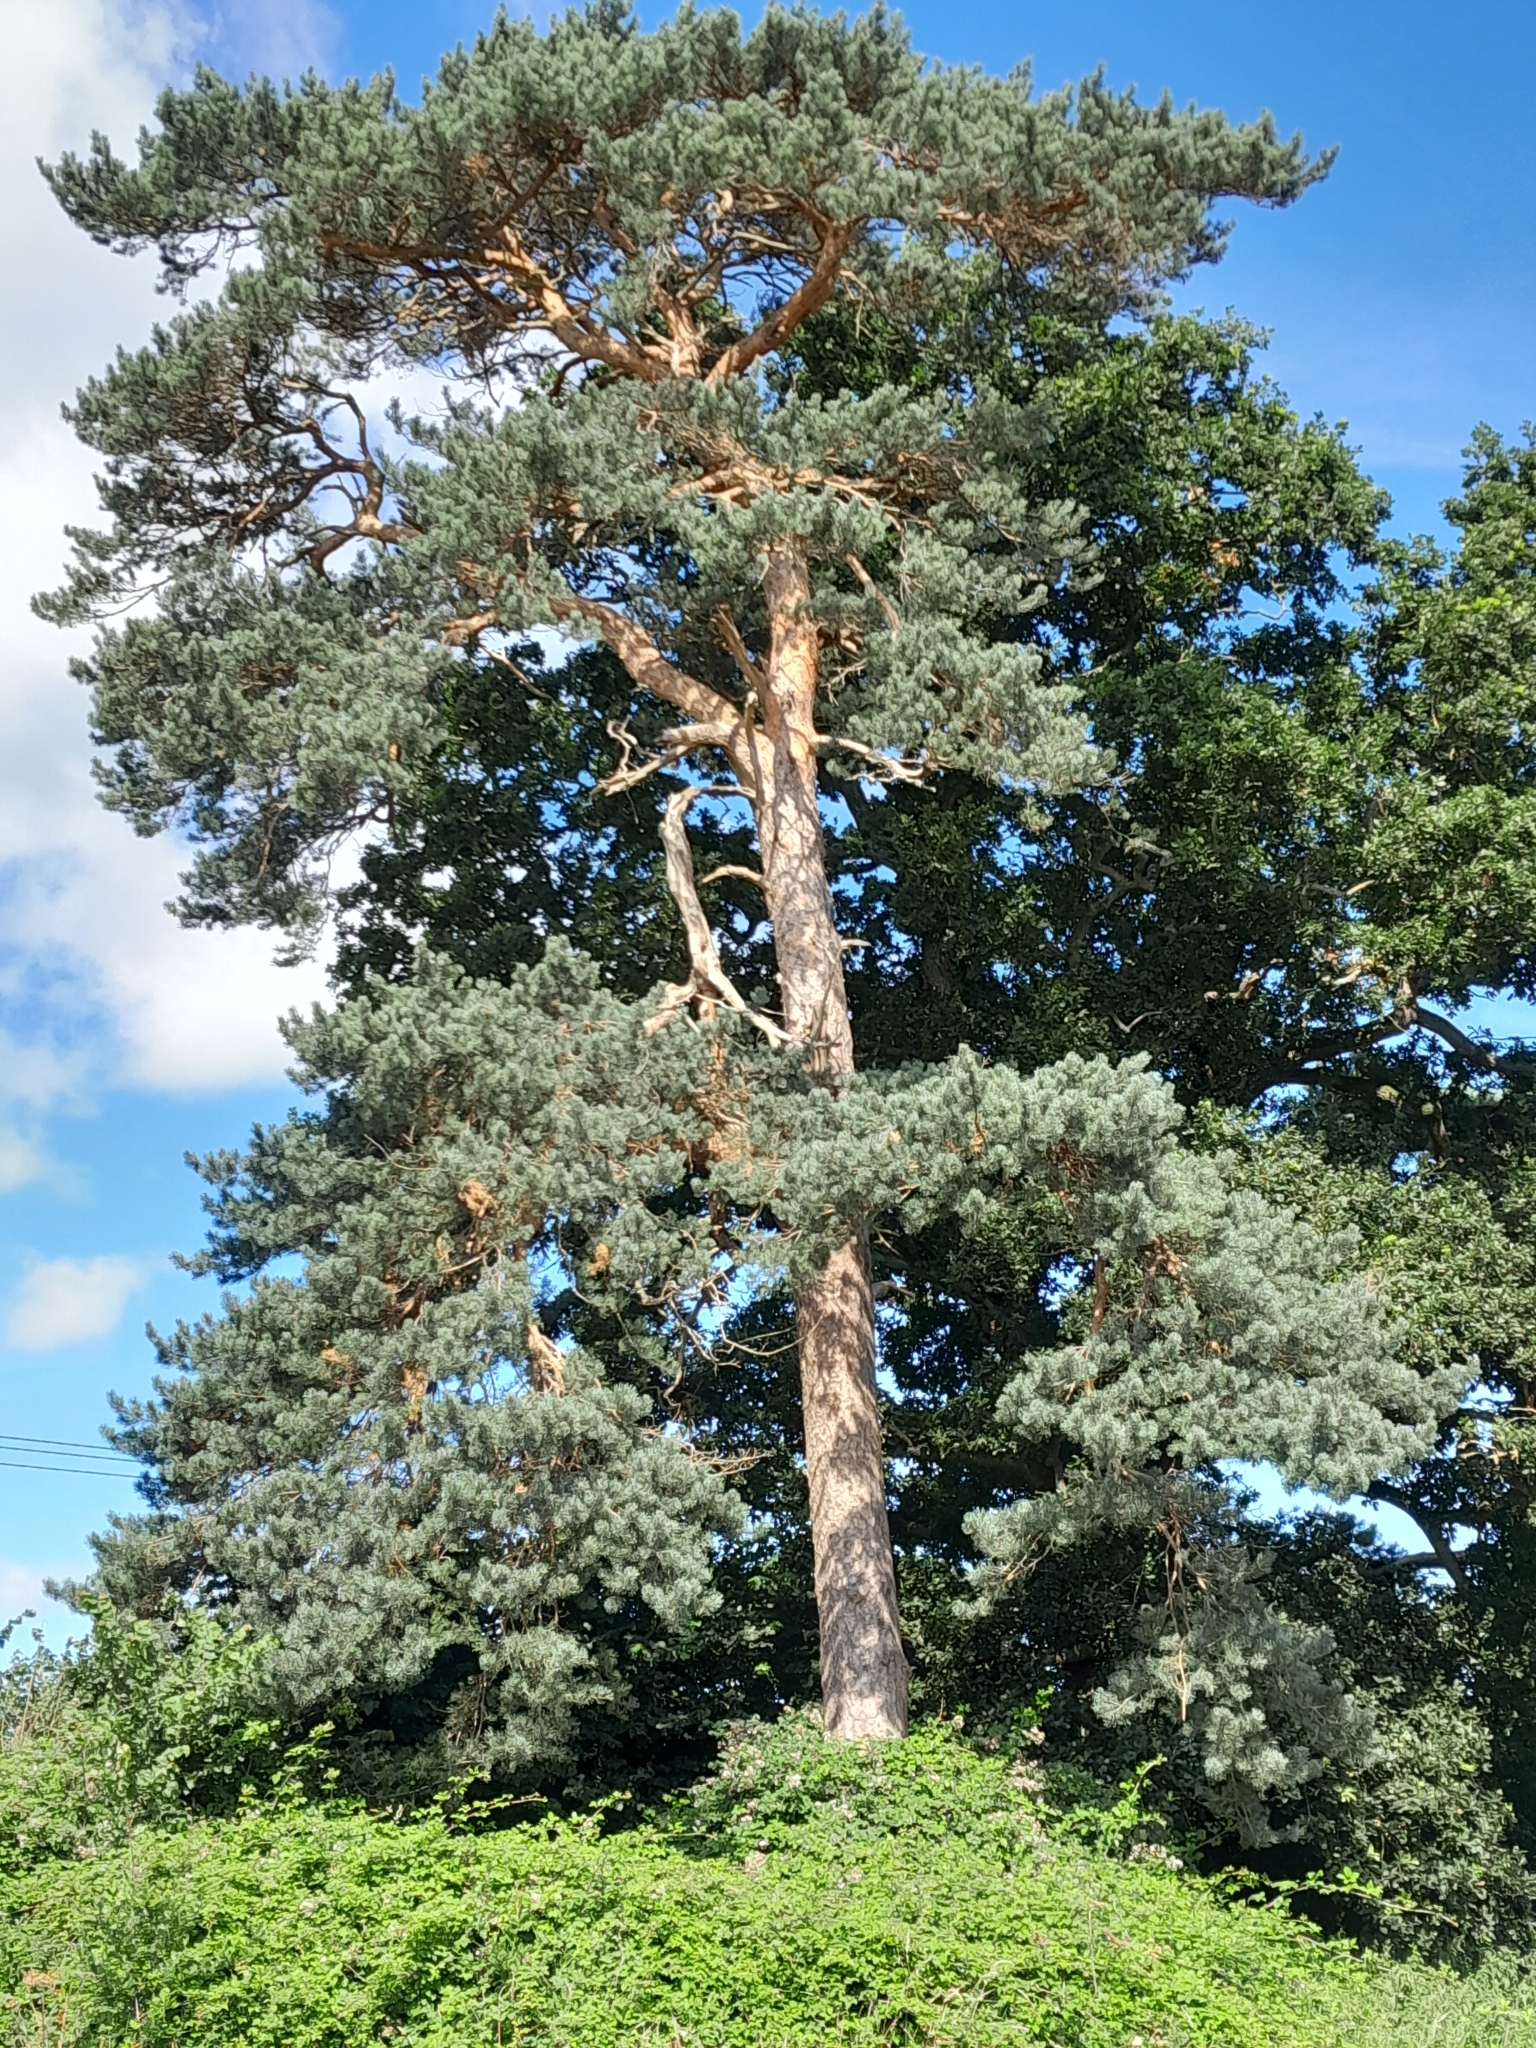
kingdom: Plantae
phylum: Tracheophyta
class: Pinopsida
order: Pinales
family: Pinaceae
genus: Pinus
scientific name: Pinus sylvestris
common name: Scots pine
